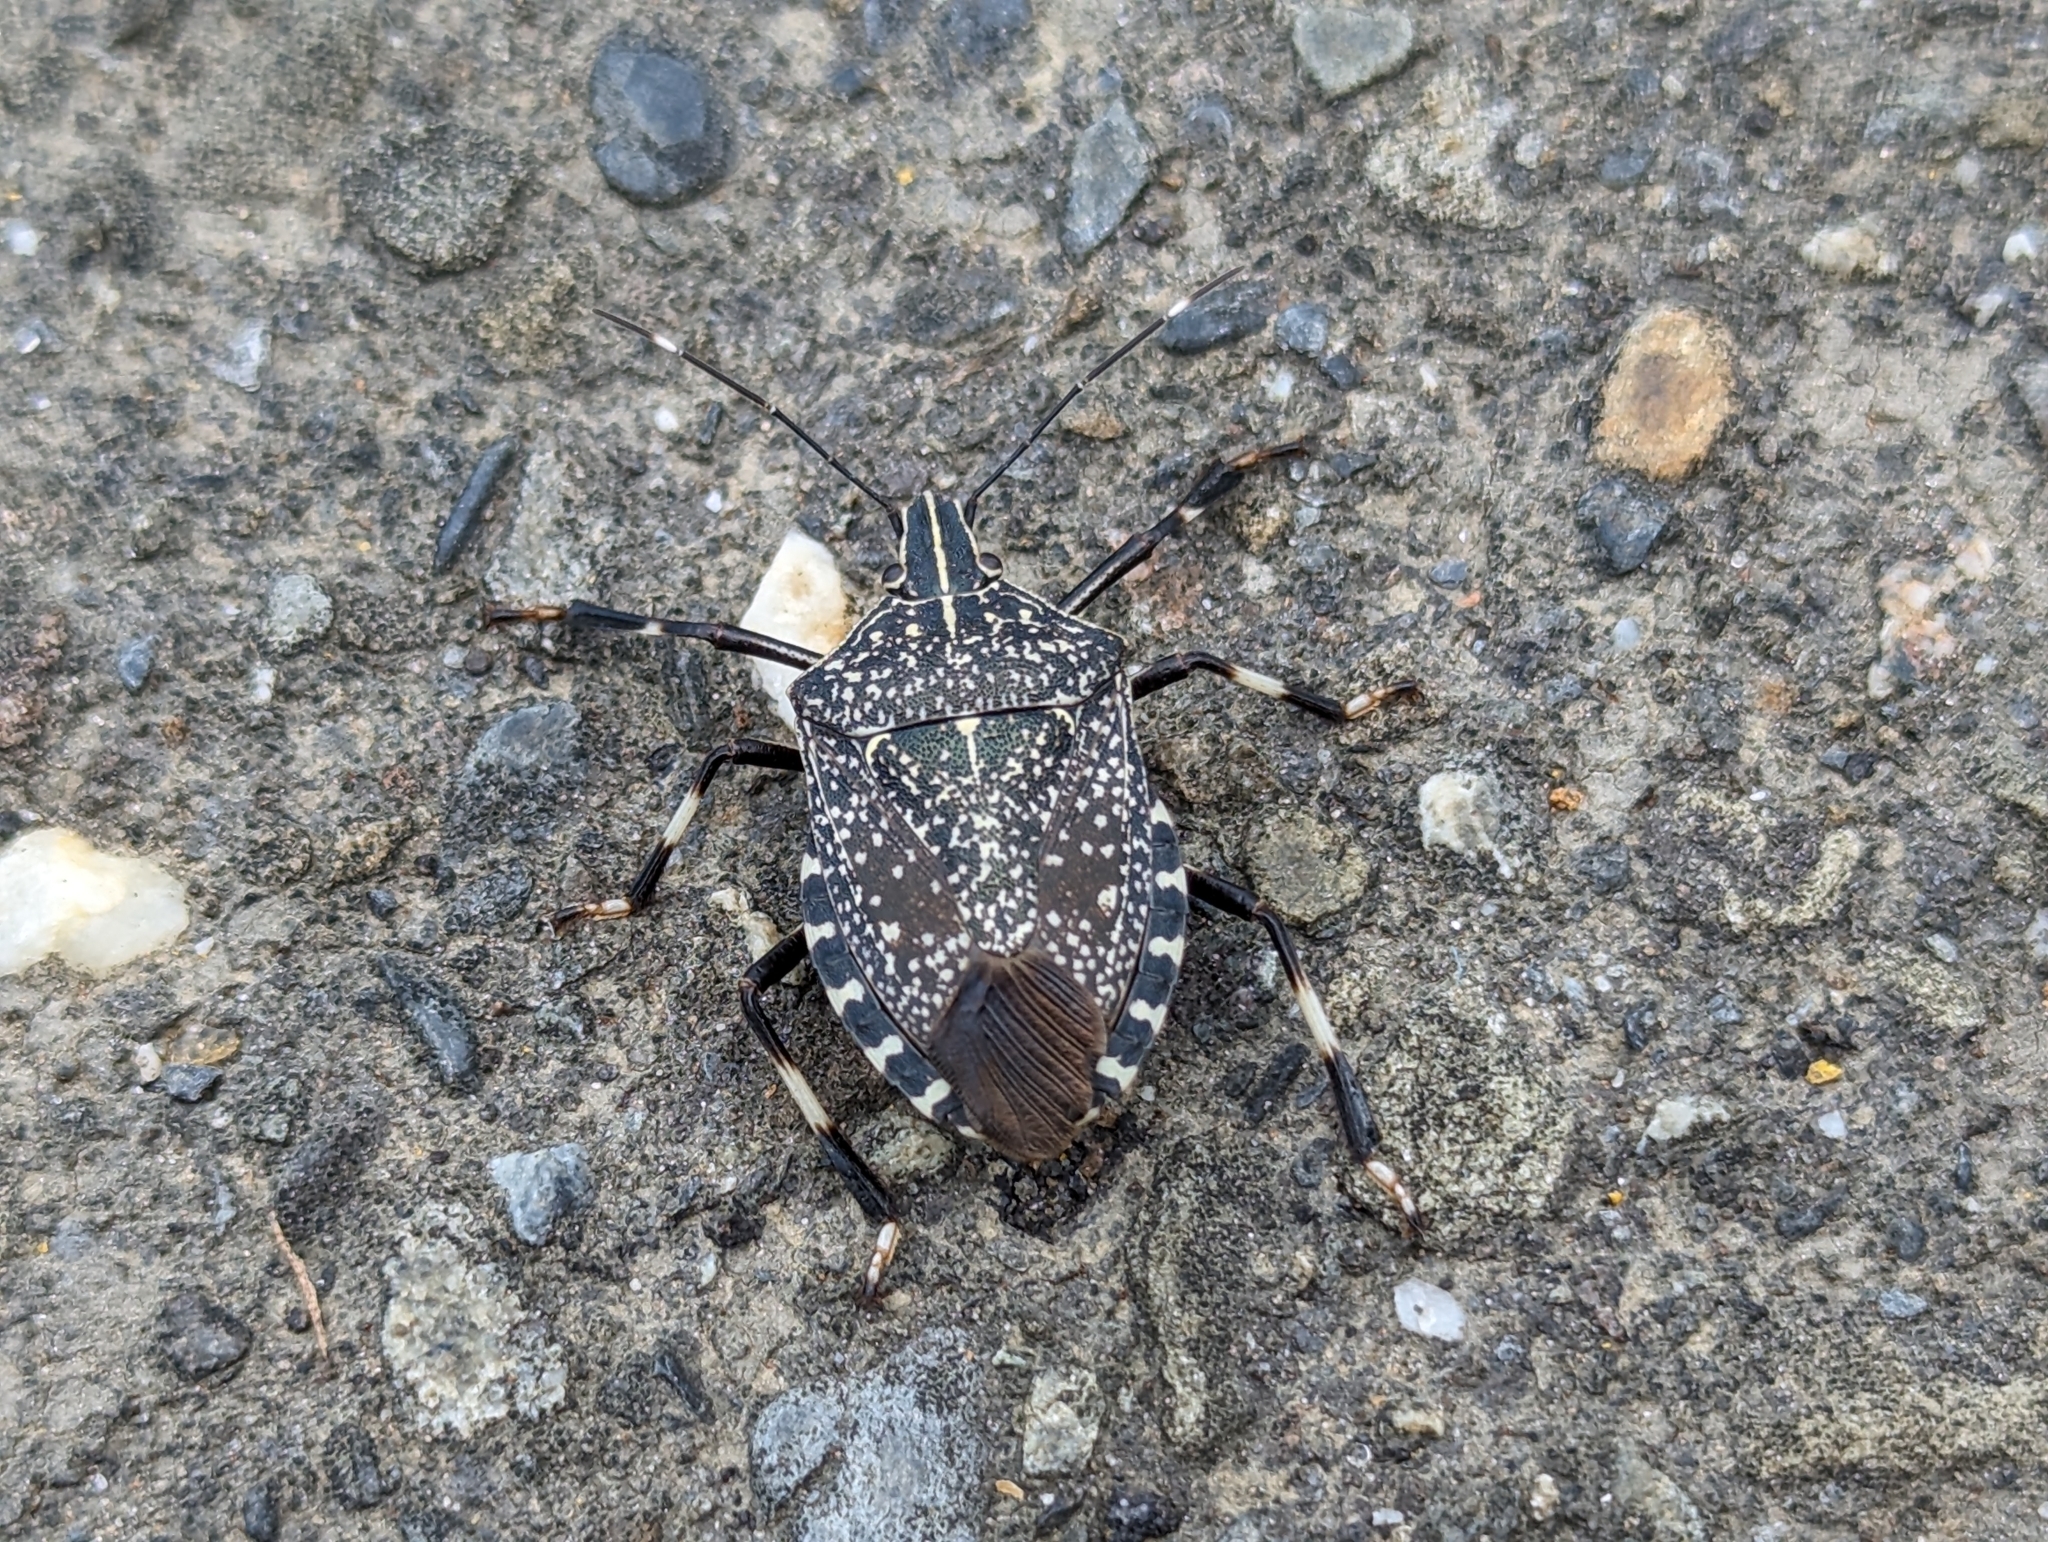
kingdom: Animalia
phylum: Arthropoda
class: Insecta
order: Hemiptera
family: Pentatomidae
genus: Erthesina
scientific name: Erthesina fullo
